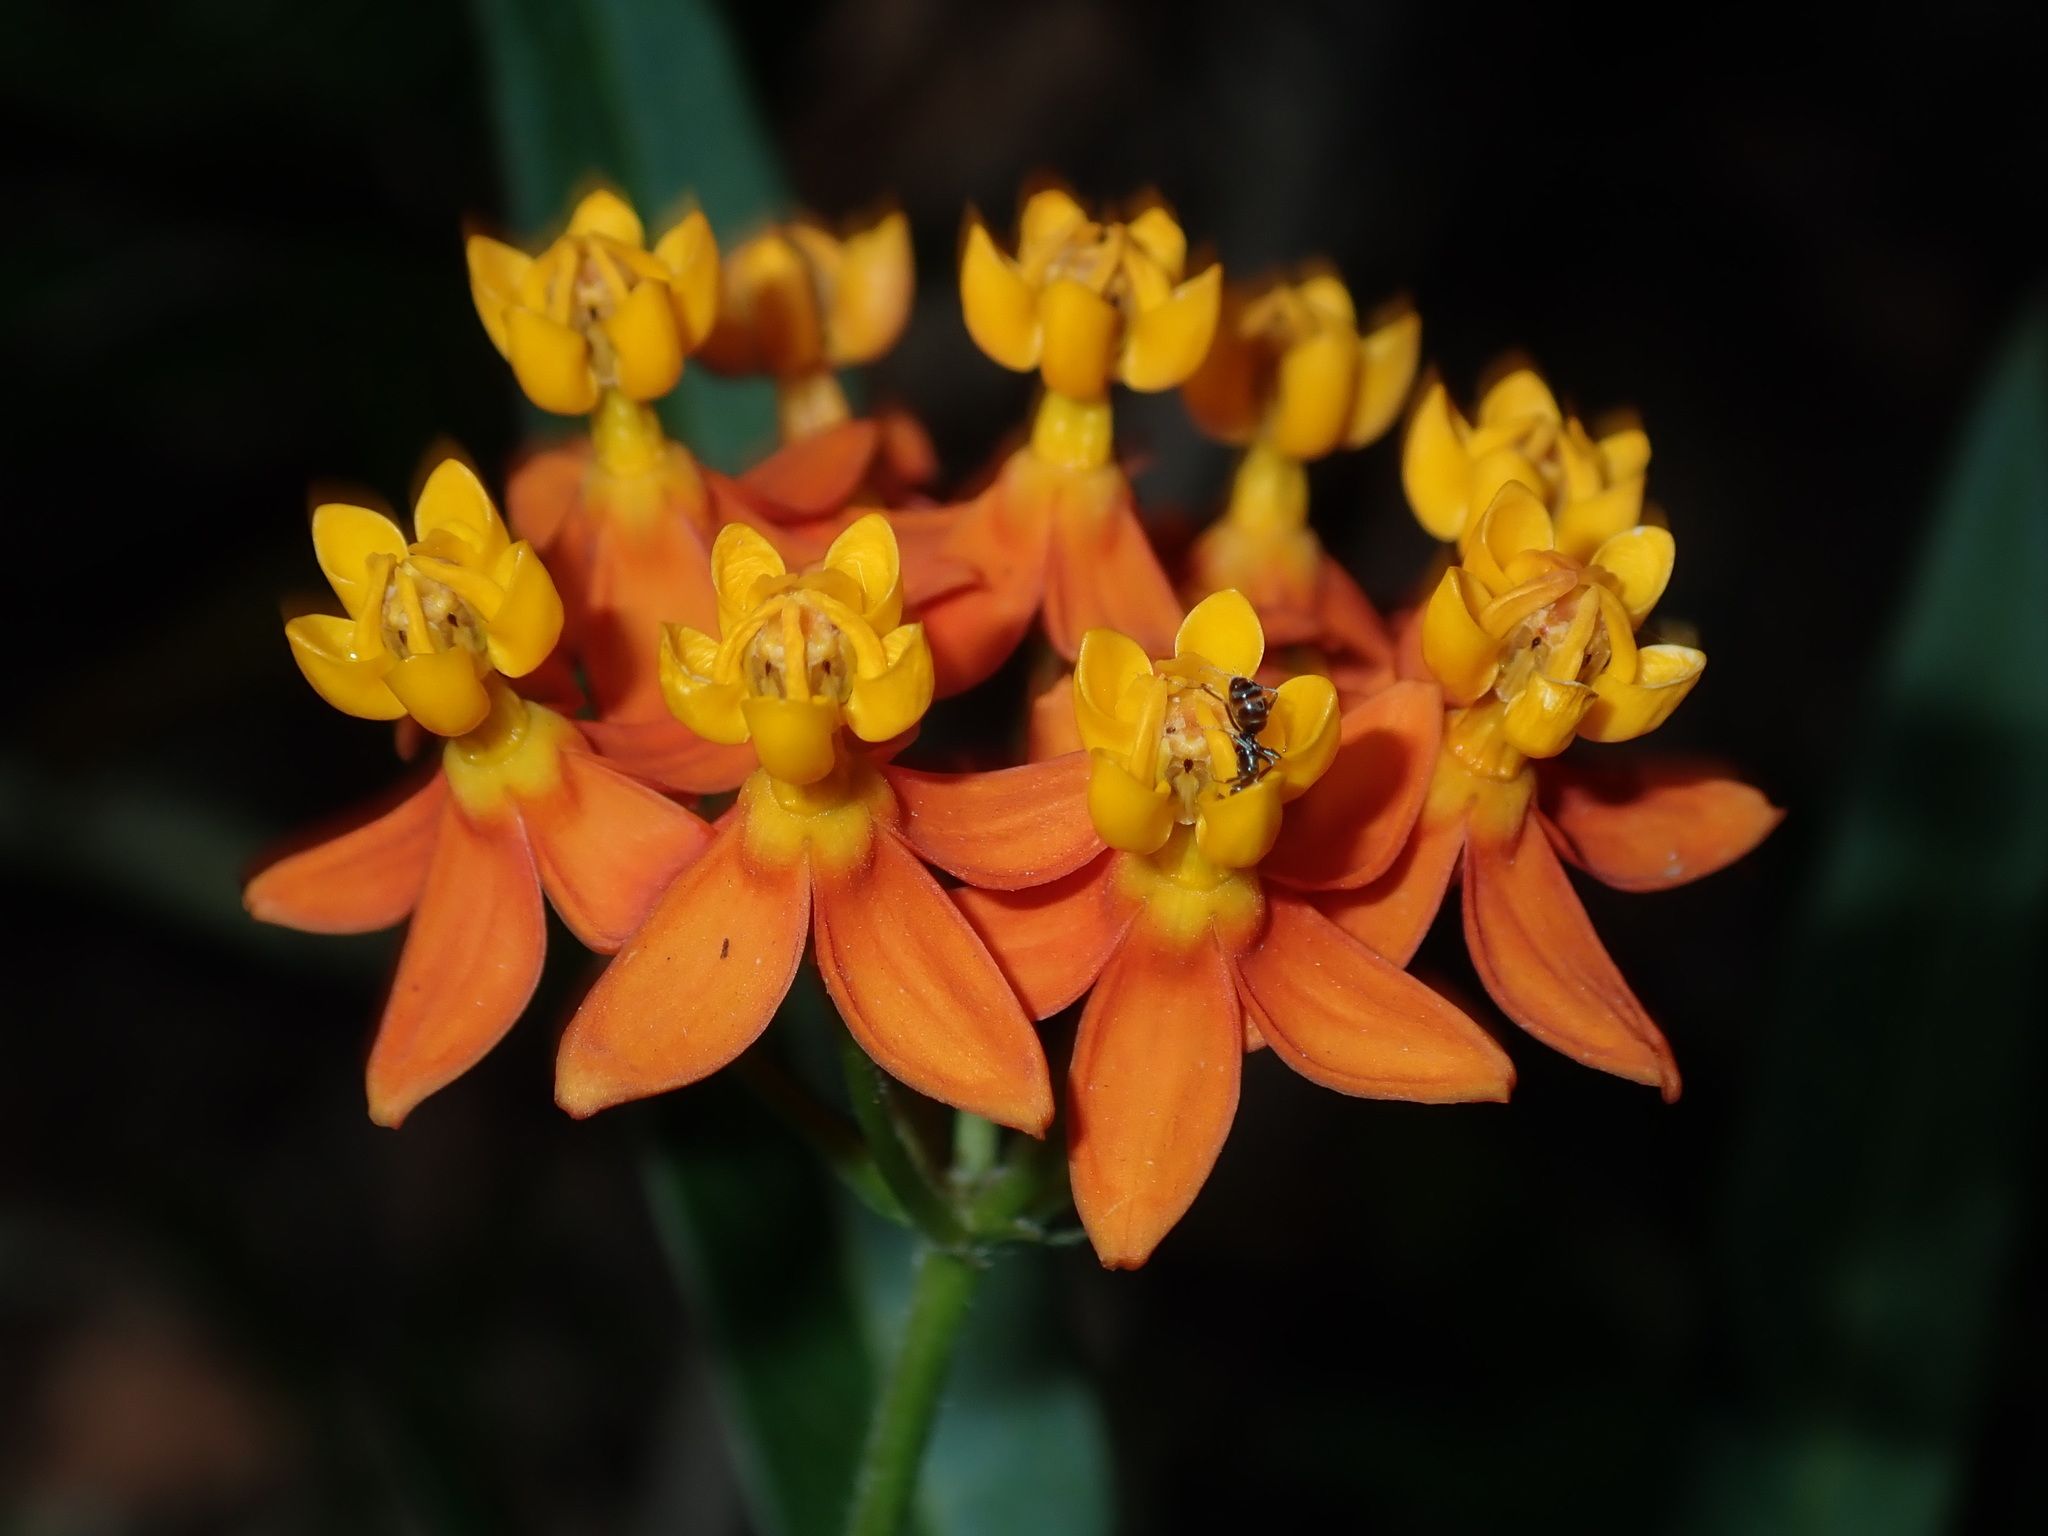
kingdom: Plantae
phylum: Tracheophyta
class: Magnoliopsida
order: Gentianales
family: Apocynaceae
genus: Asclepias
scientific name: Asclepias curassavica
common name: Bloodflower
